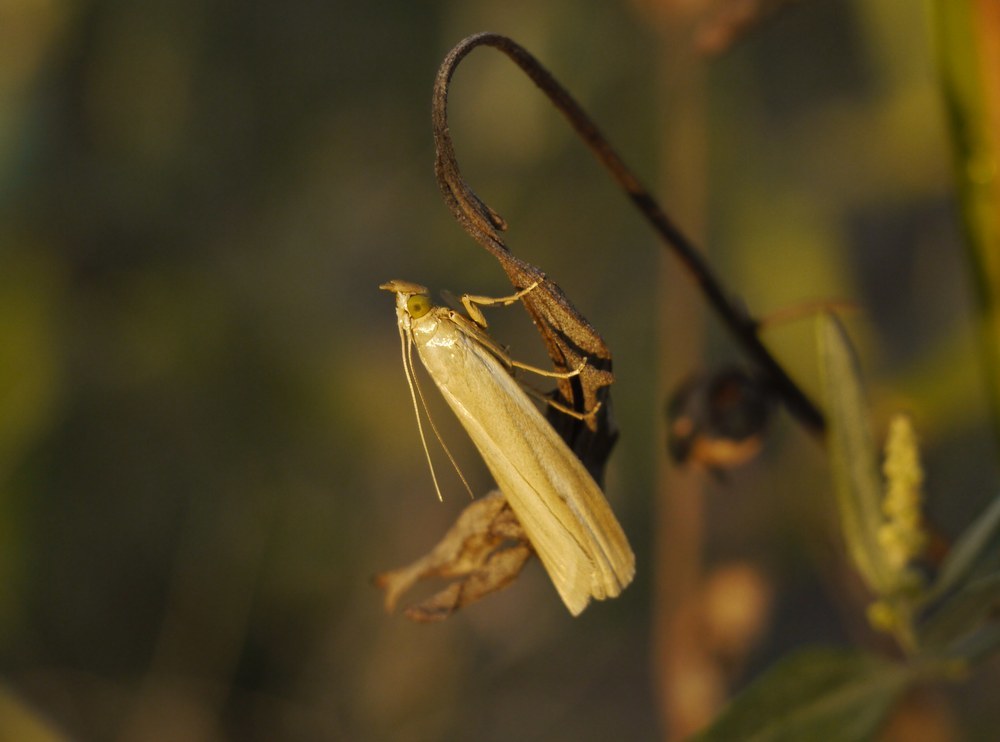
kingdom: Animalia
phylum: Arthropoda
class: Insecta
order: Lepidoptera
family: Pyralidae
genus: Selagia
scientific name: Selagia argyrella
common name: Silvery knot-horn
